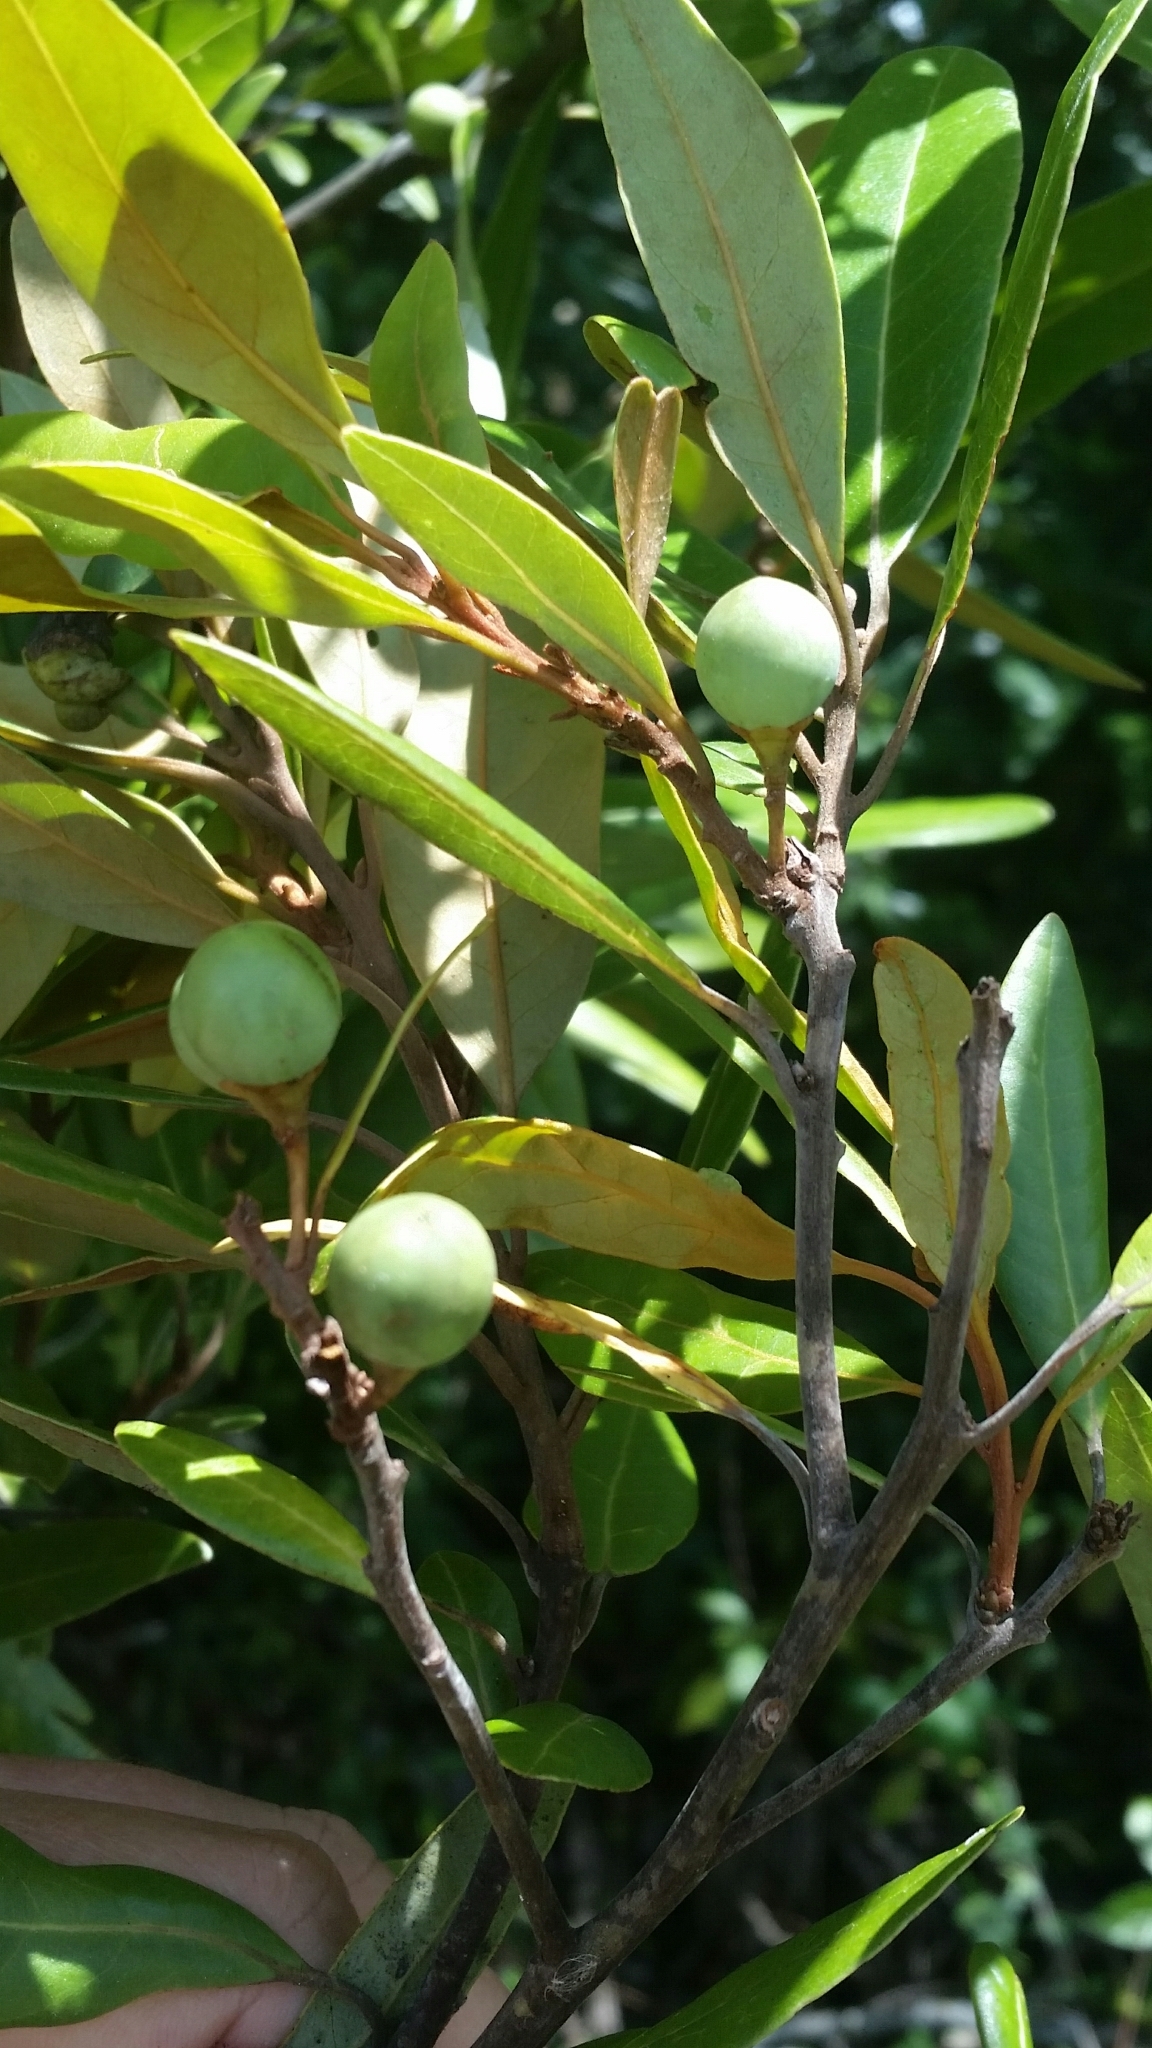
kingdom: Plantae
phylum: Tracheophyta
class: Magnoliopsida
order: Laurales
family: Lauraceae
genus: Persea
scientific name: Persea humilis
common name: Silkbay
